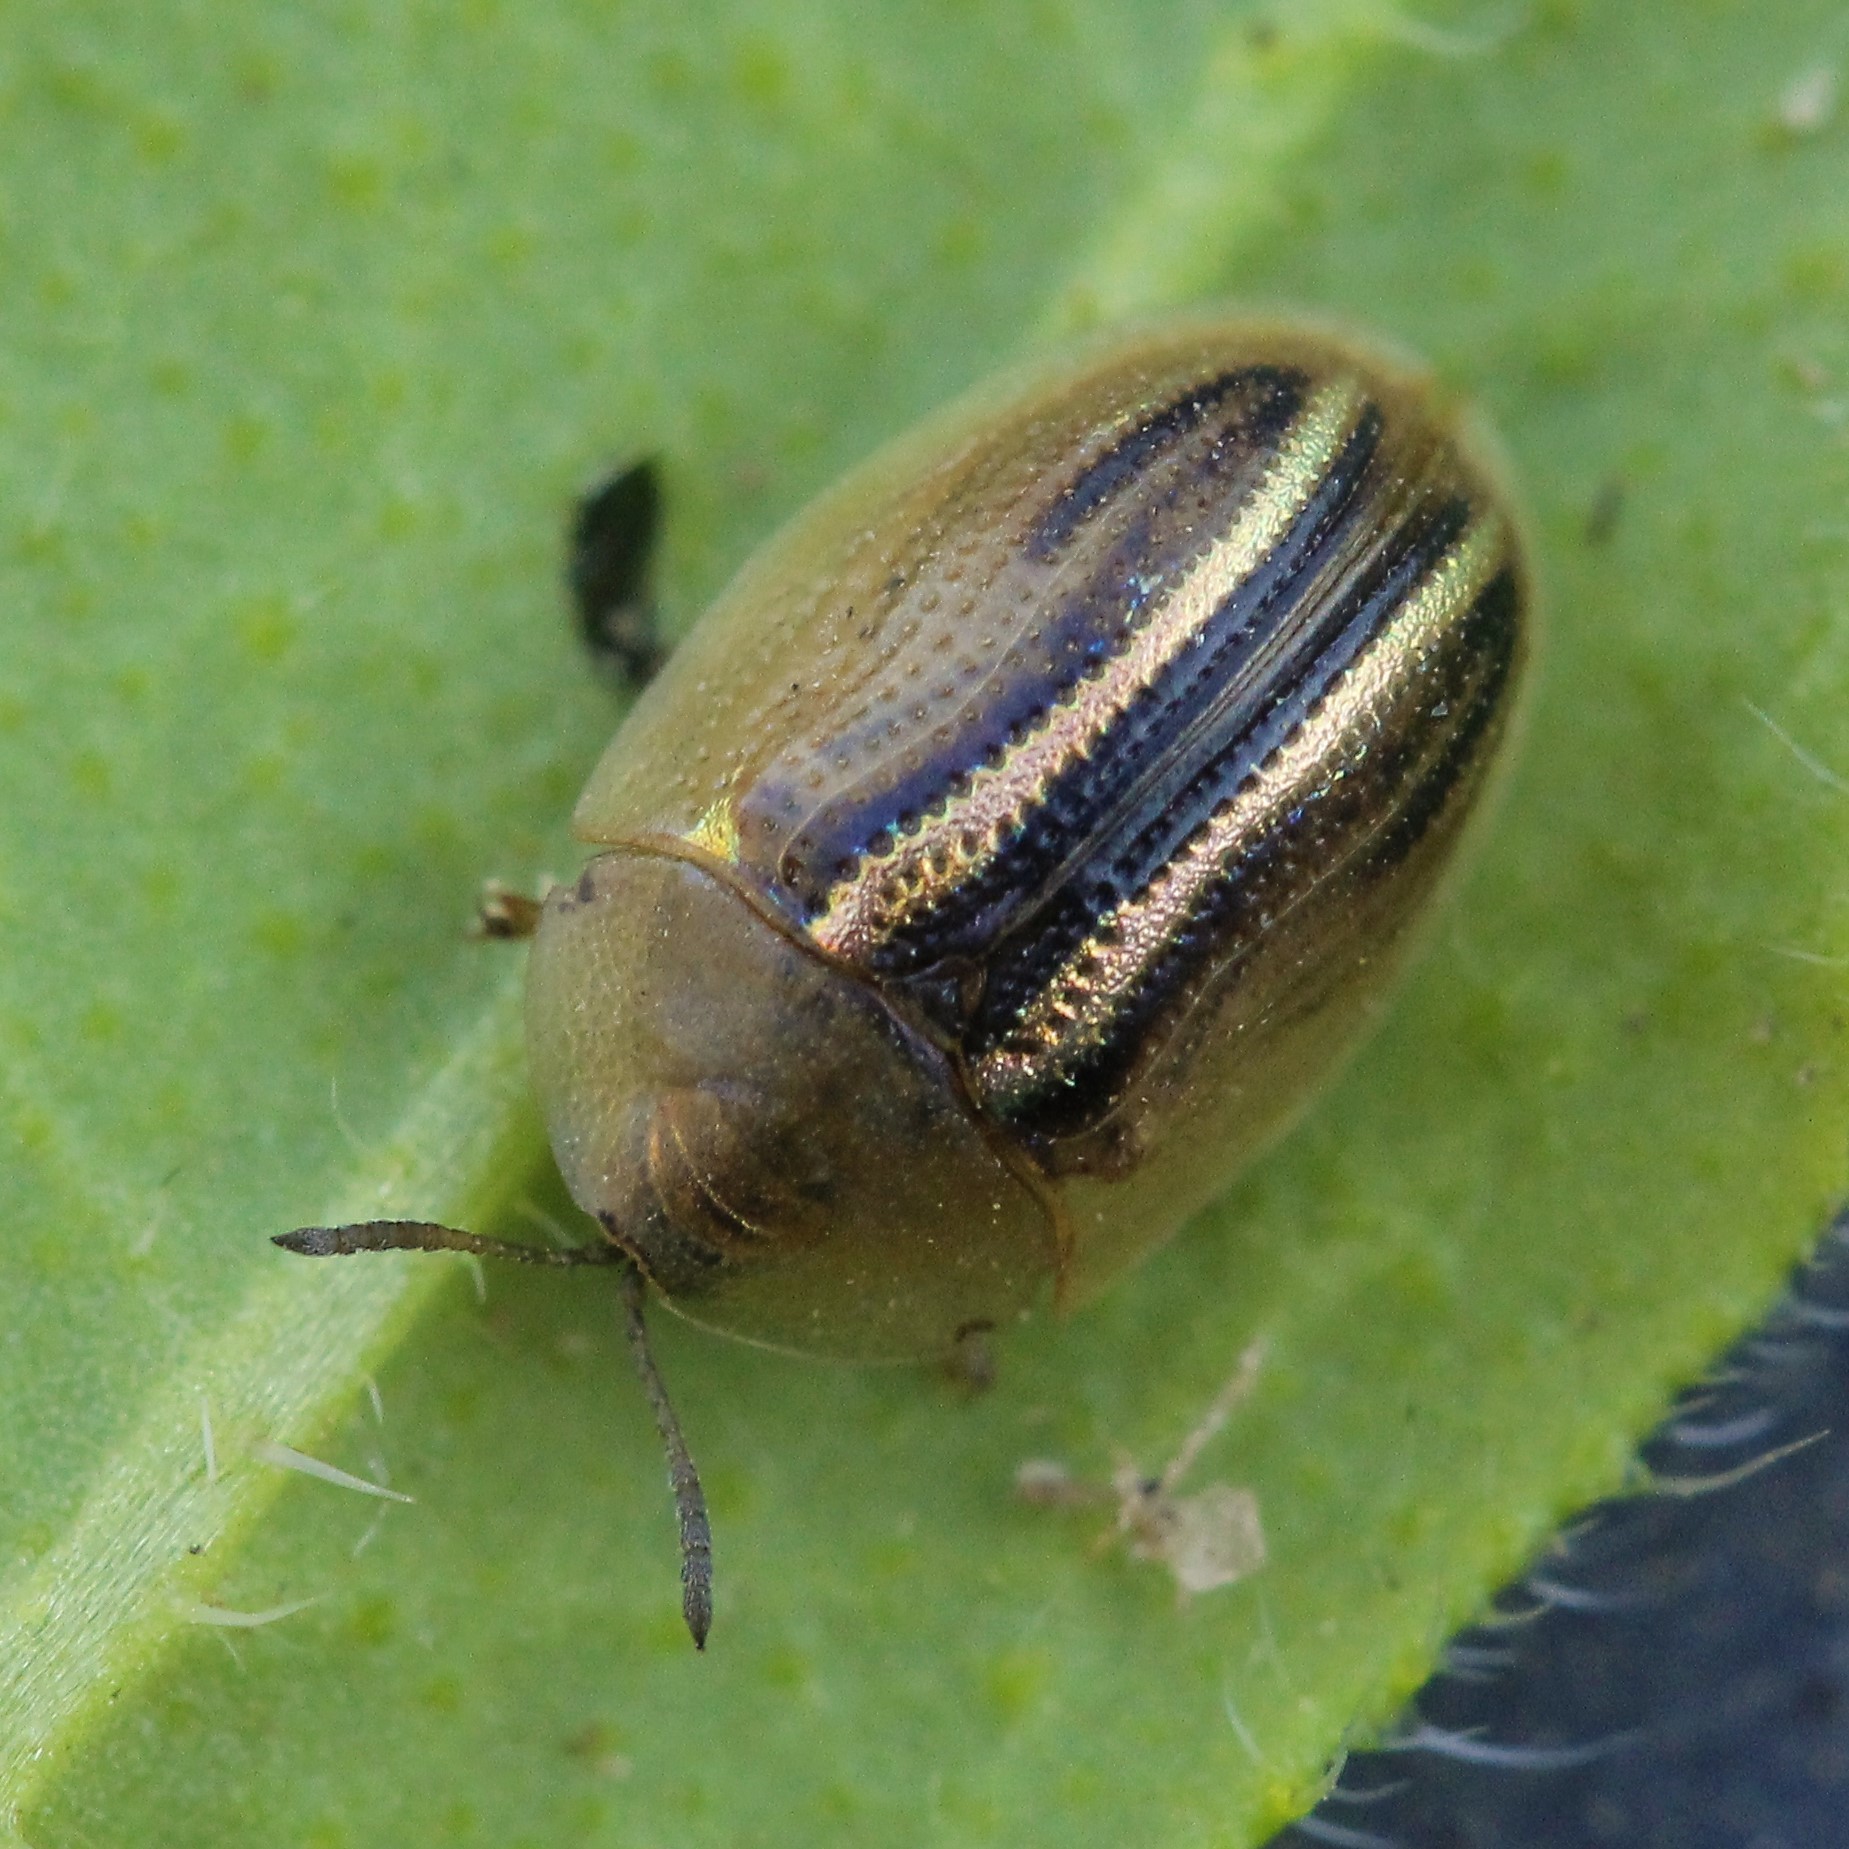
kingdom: Animalia
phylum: Arthropoda
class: Insecta
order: Coleoptera
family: Chrysomelidae
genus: Cassida
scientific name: Cassida nobilis
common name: Leaf beetle
